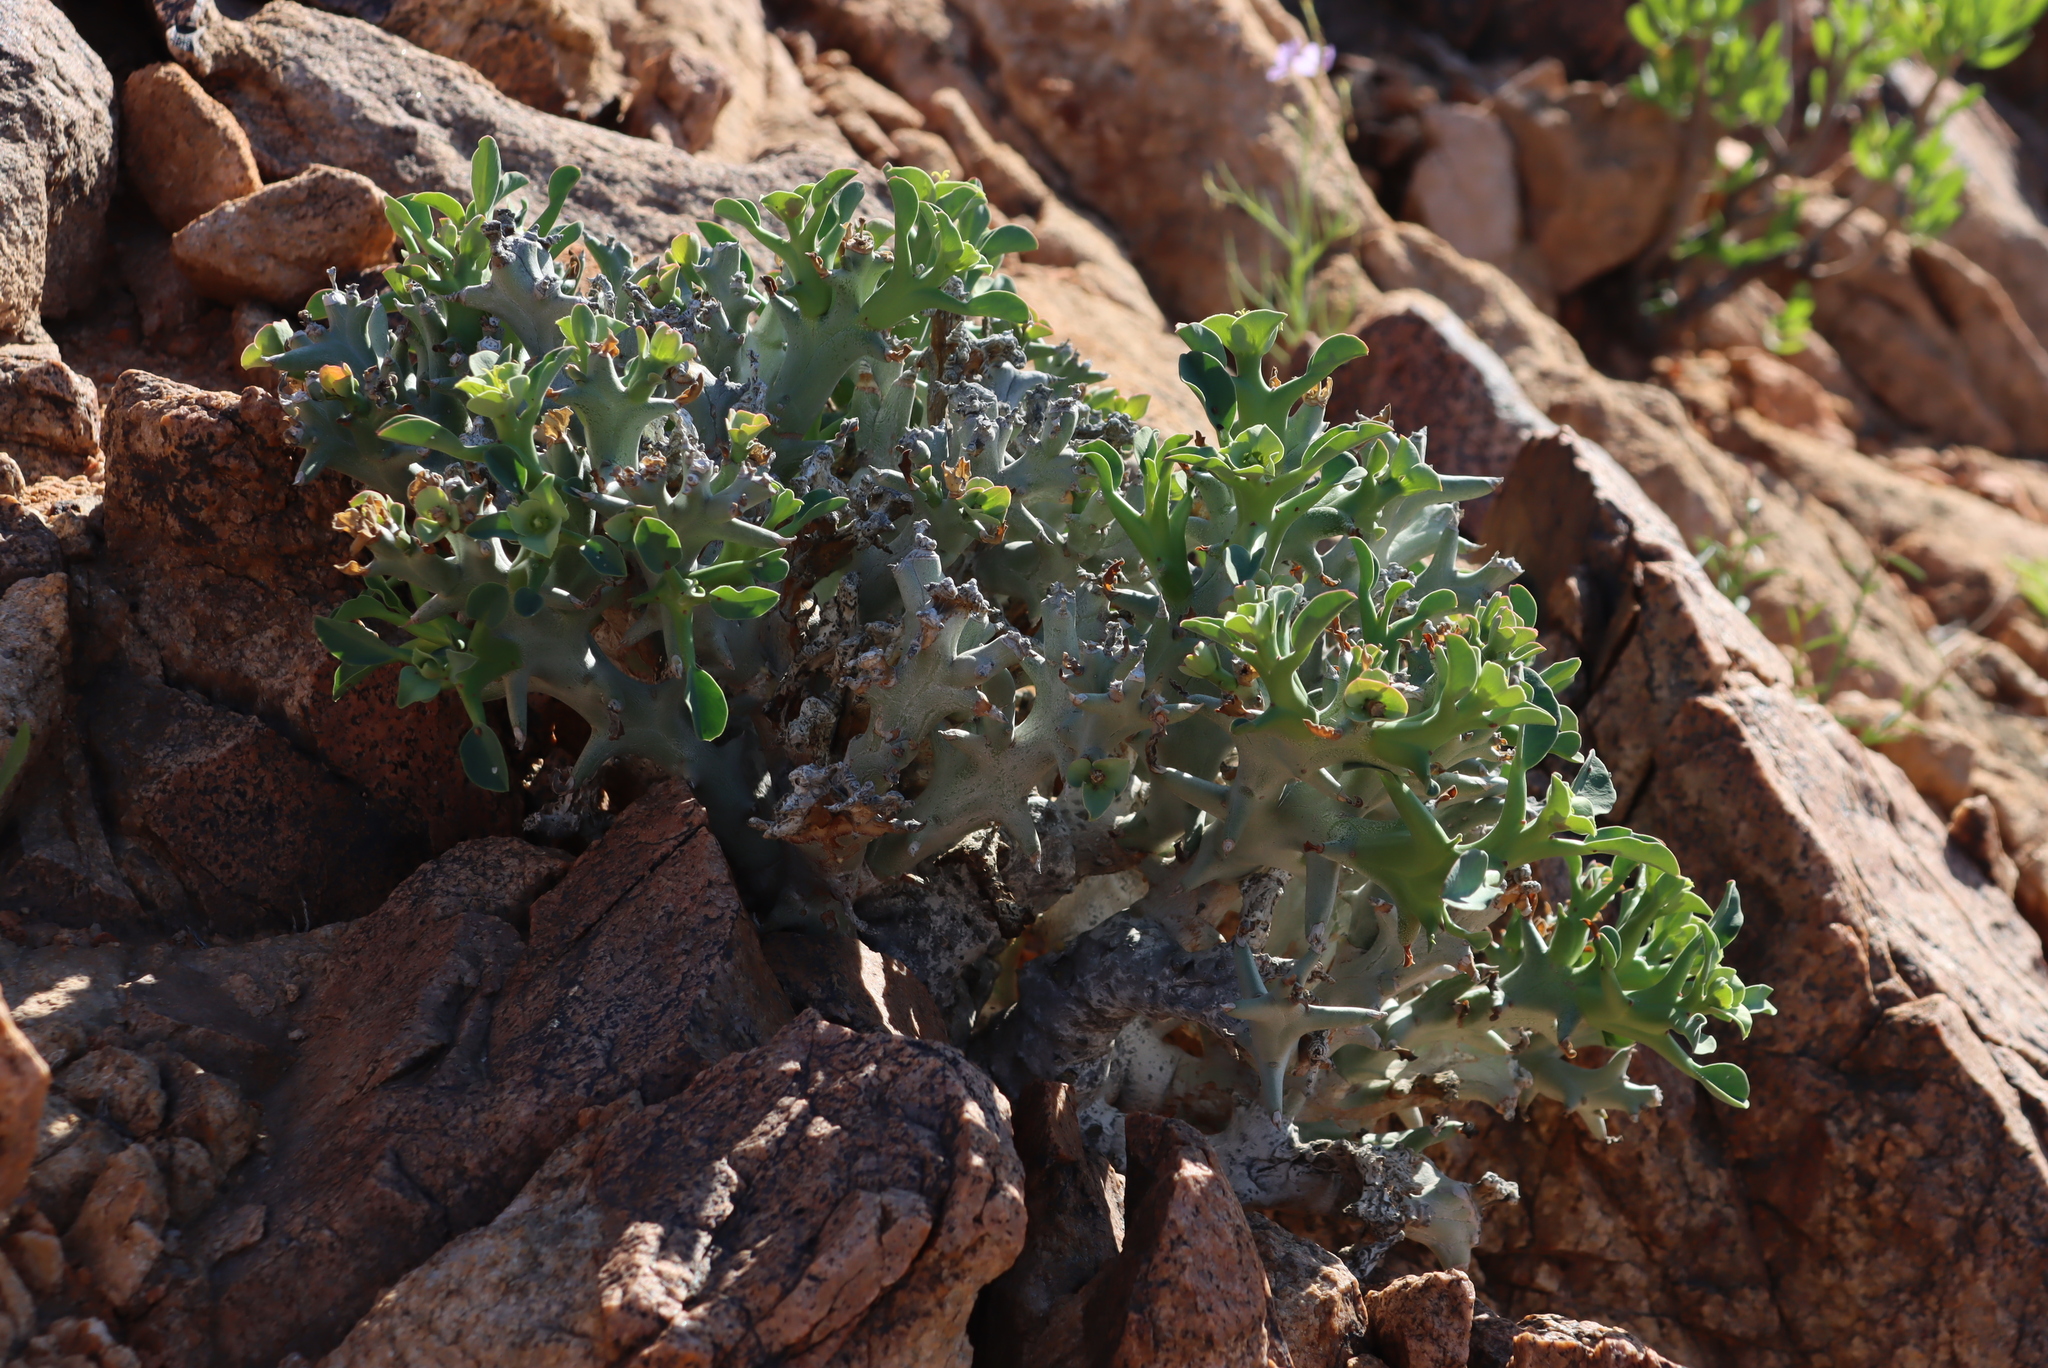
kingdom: Plantae
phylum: Tracheophyta
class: Magnoliopsida
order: Malpighiales
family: Euphorbiaceae
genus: Euphorbia
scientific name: Euphorbia hamata
